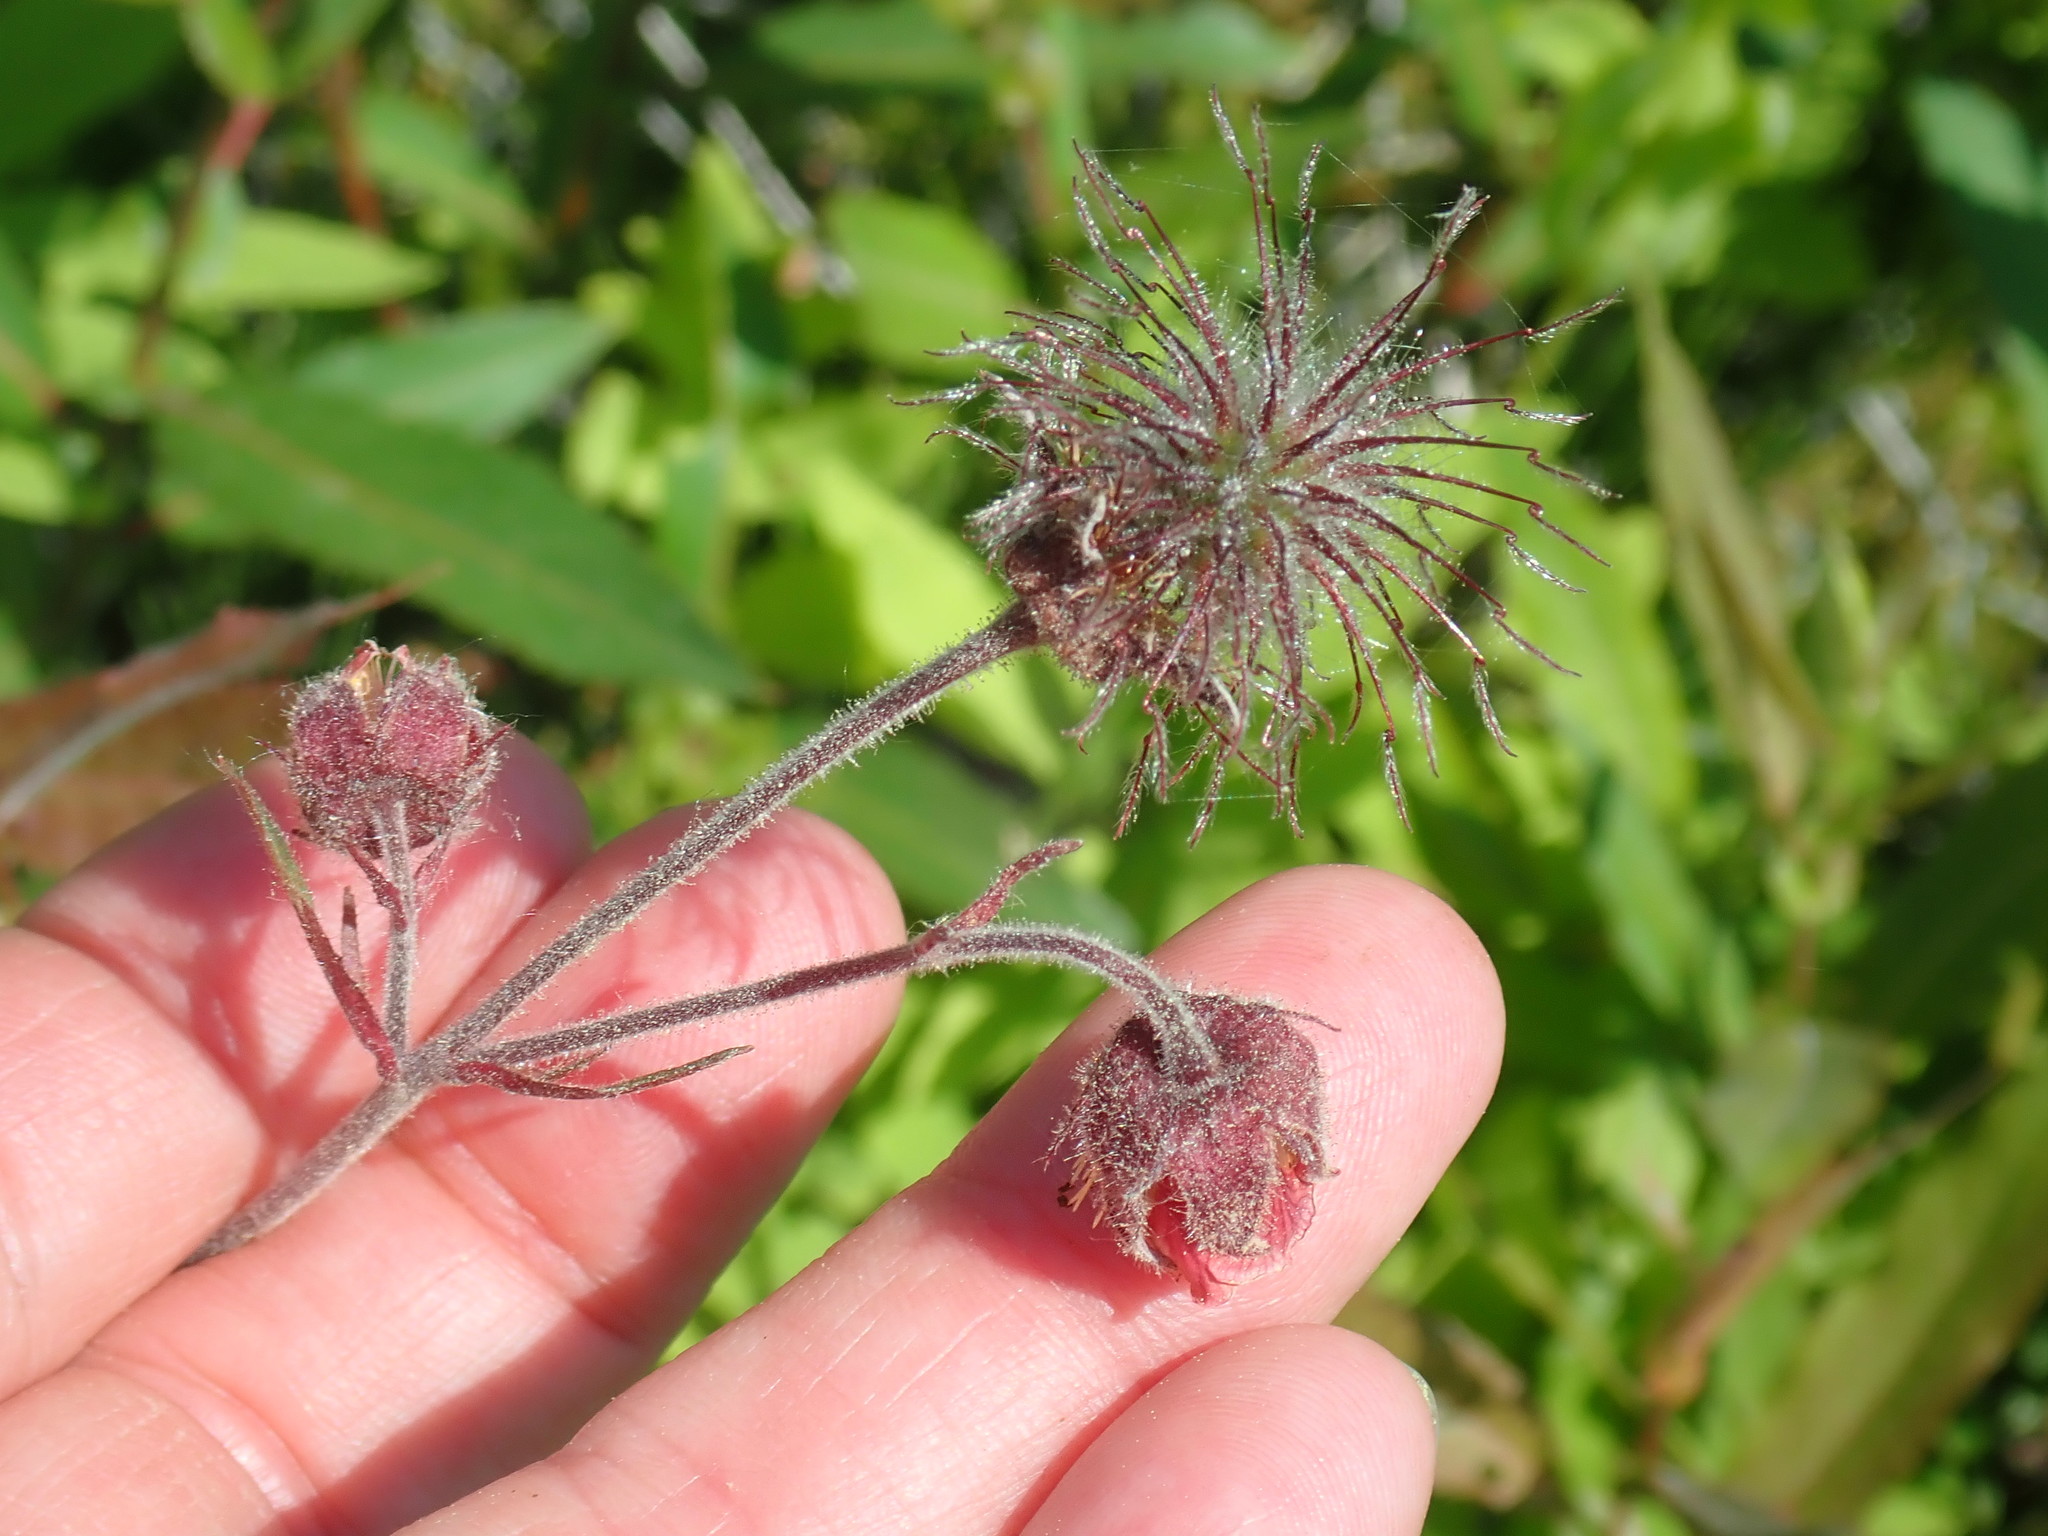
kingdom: Plantae
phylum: Tracheophyta
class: Magnoliopsida
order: Rosales
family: Rosaceae
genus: Geum
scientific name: Geum rivale
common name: Water avens
